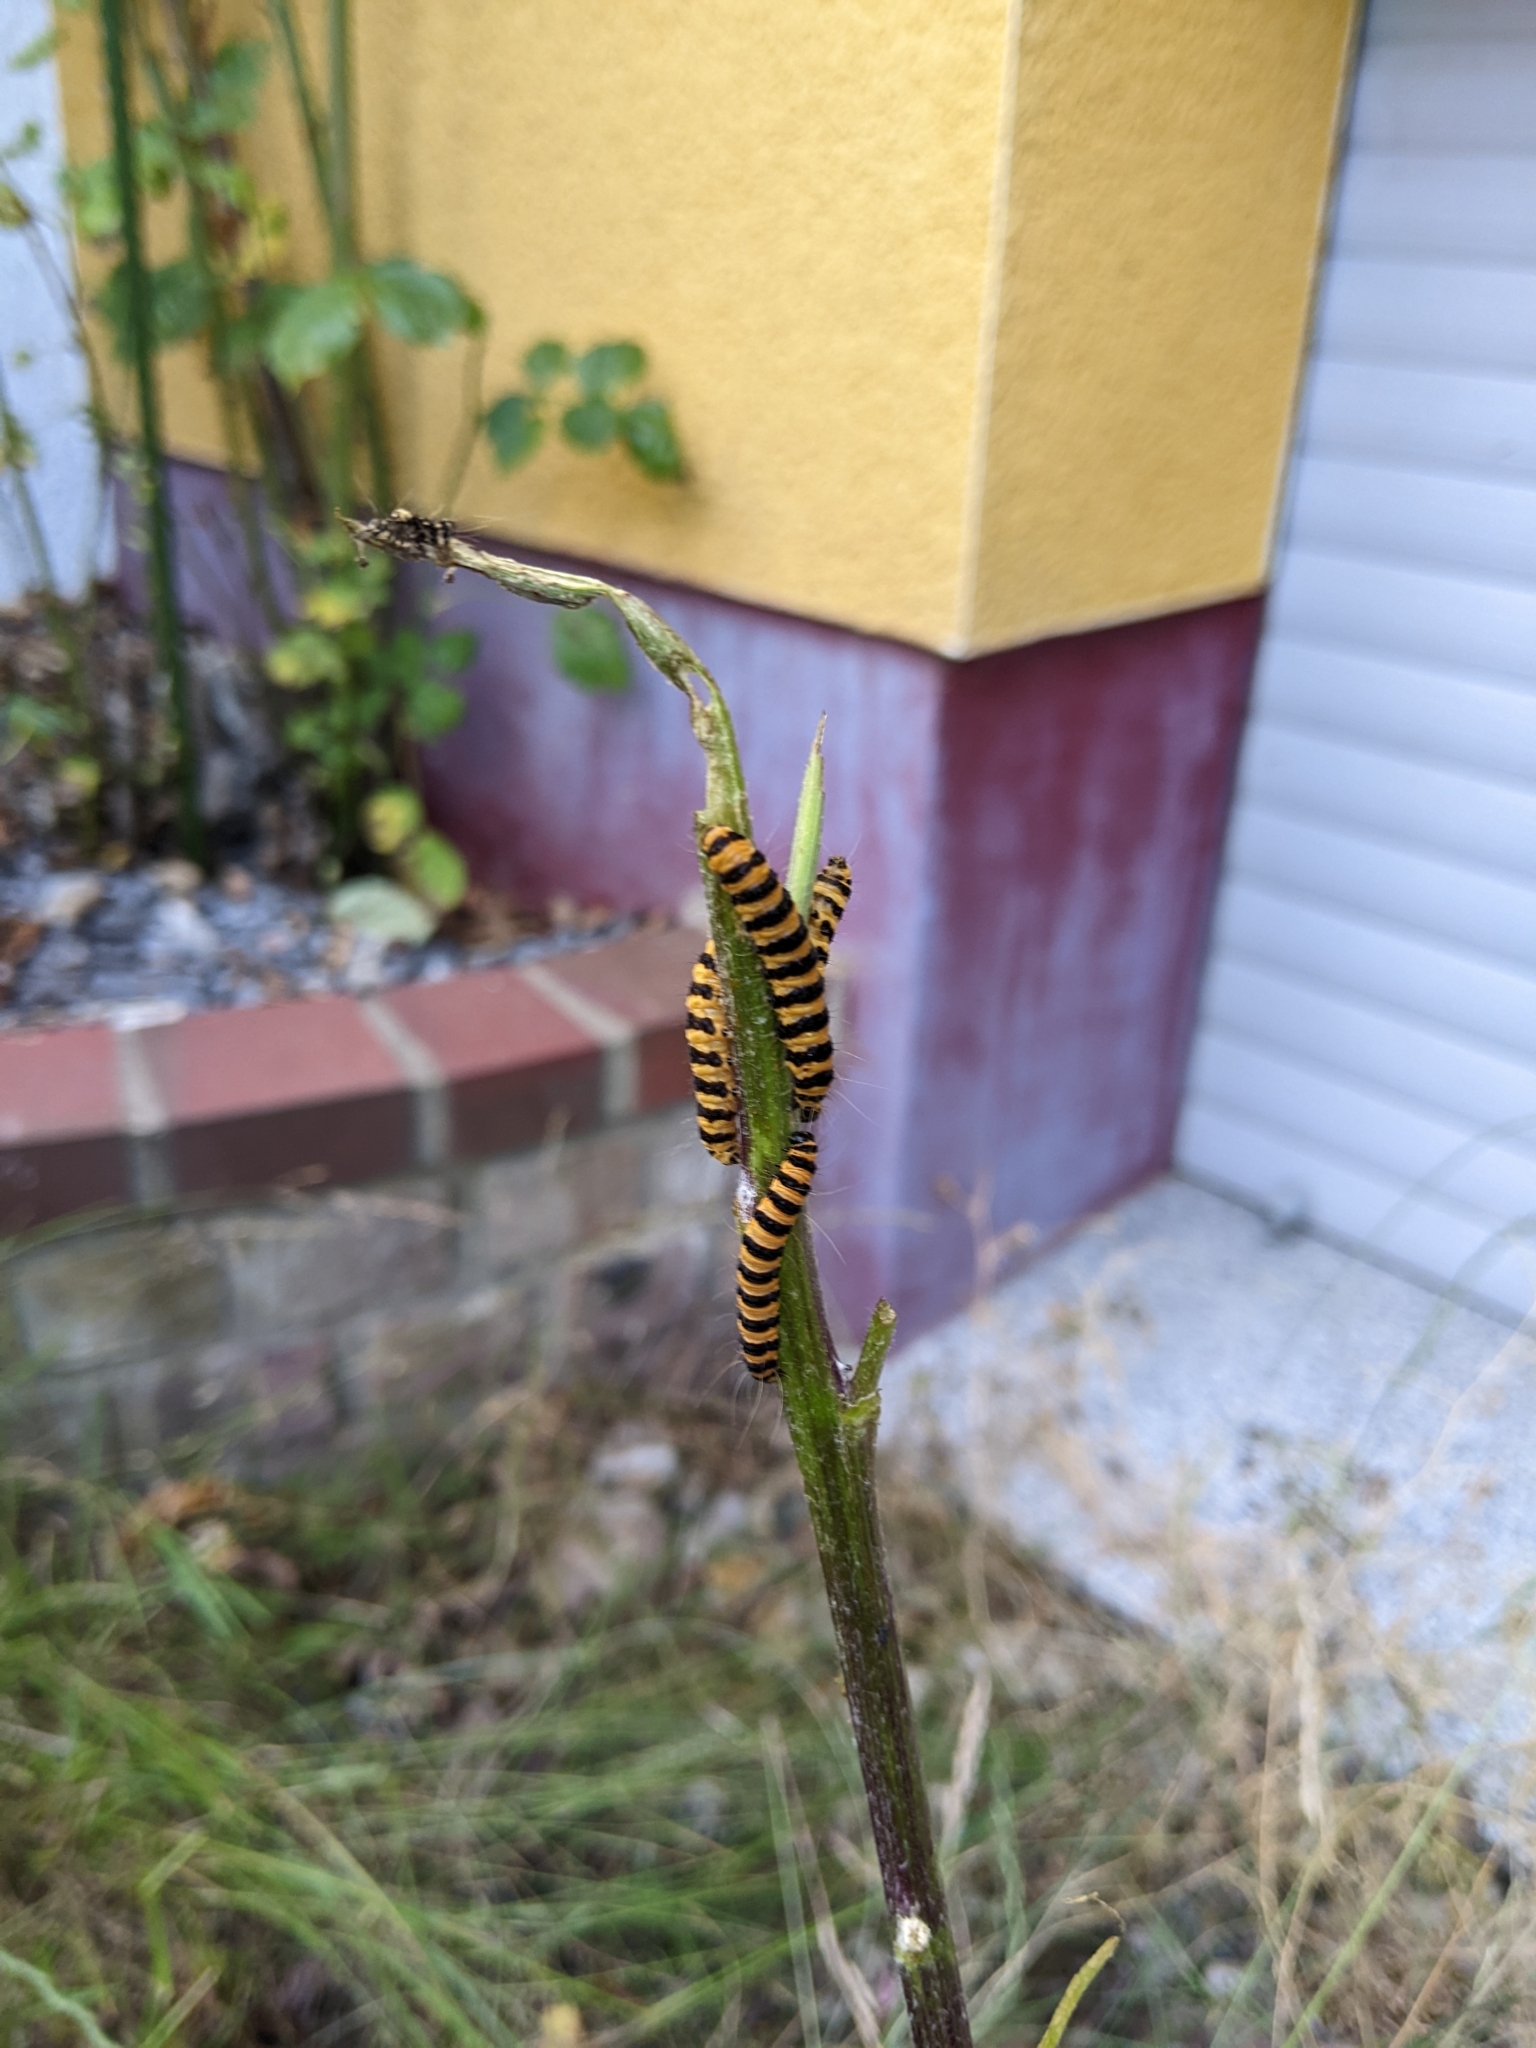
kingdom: Animalia
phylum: Arthropoda
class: Insecta
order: Lepidoptera
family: Erebidae
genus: Tyria
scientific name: Tyria jacobaeae
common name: Cinnabar
